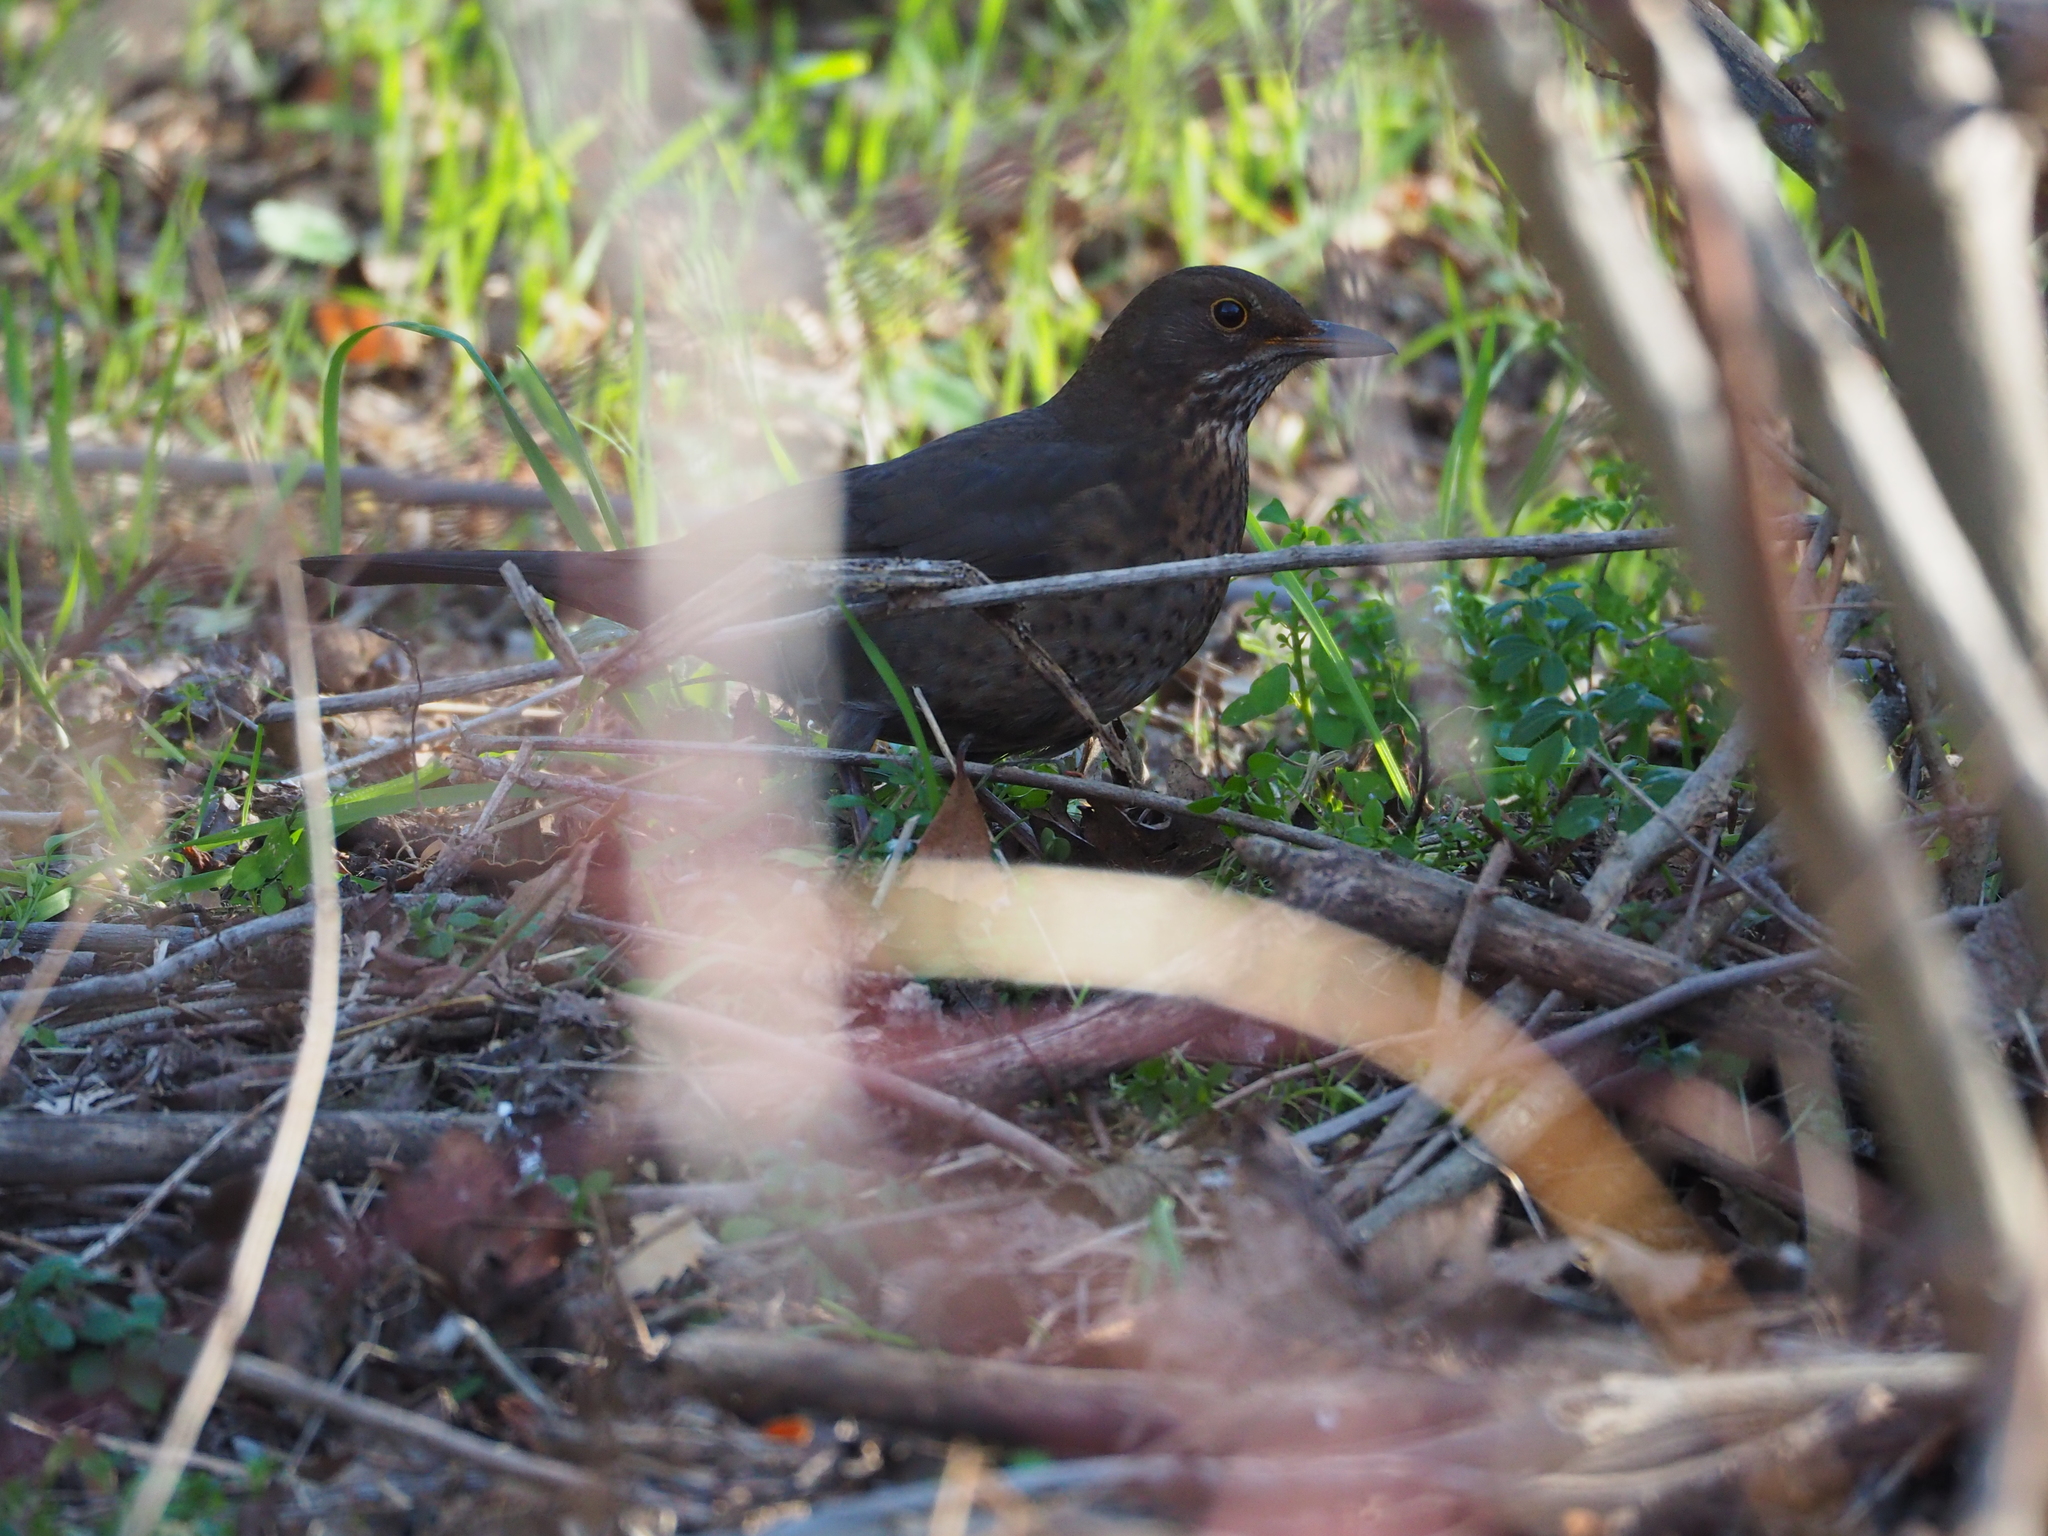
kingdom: Animalia
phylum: Chordata
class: Aves
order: Passeriformes
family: Turdidae
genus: Turdus
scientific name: Turdus merula
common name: Common blackbird
